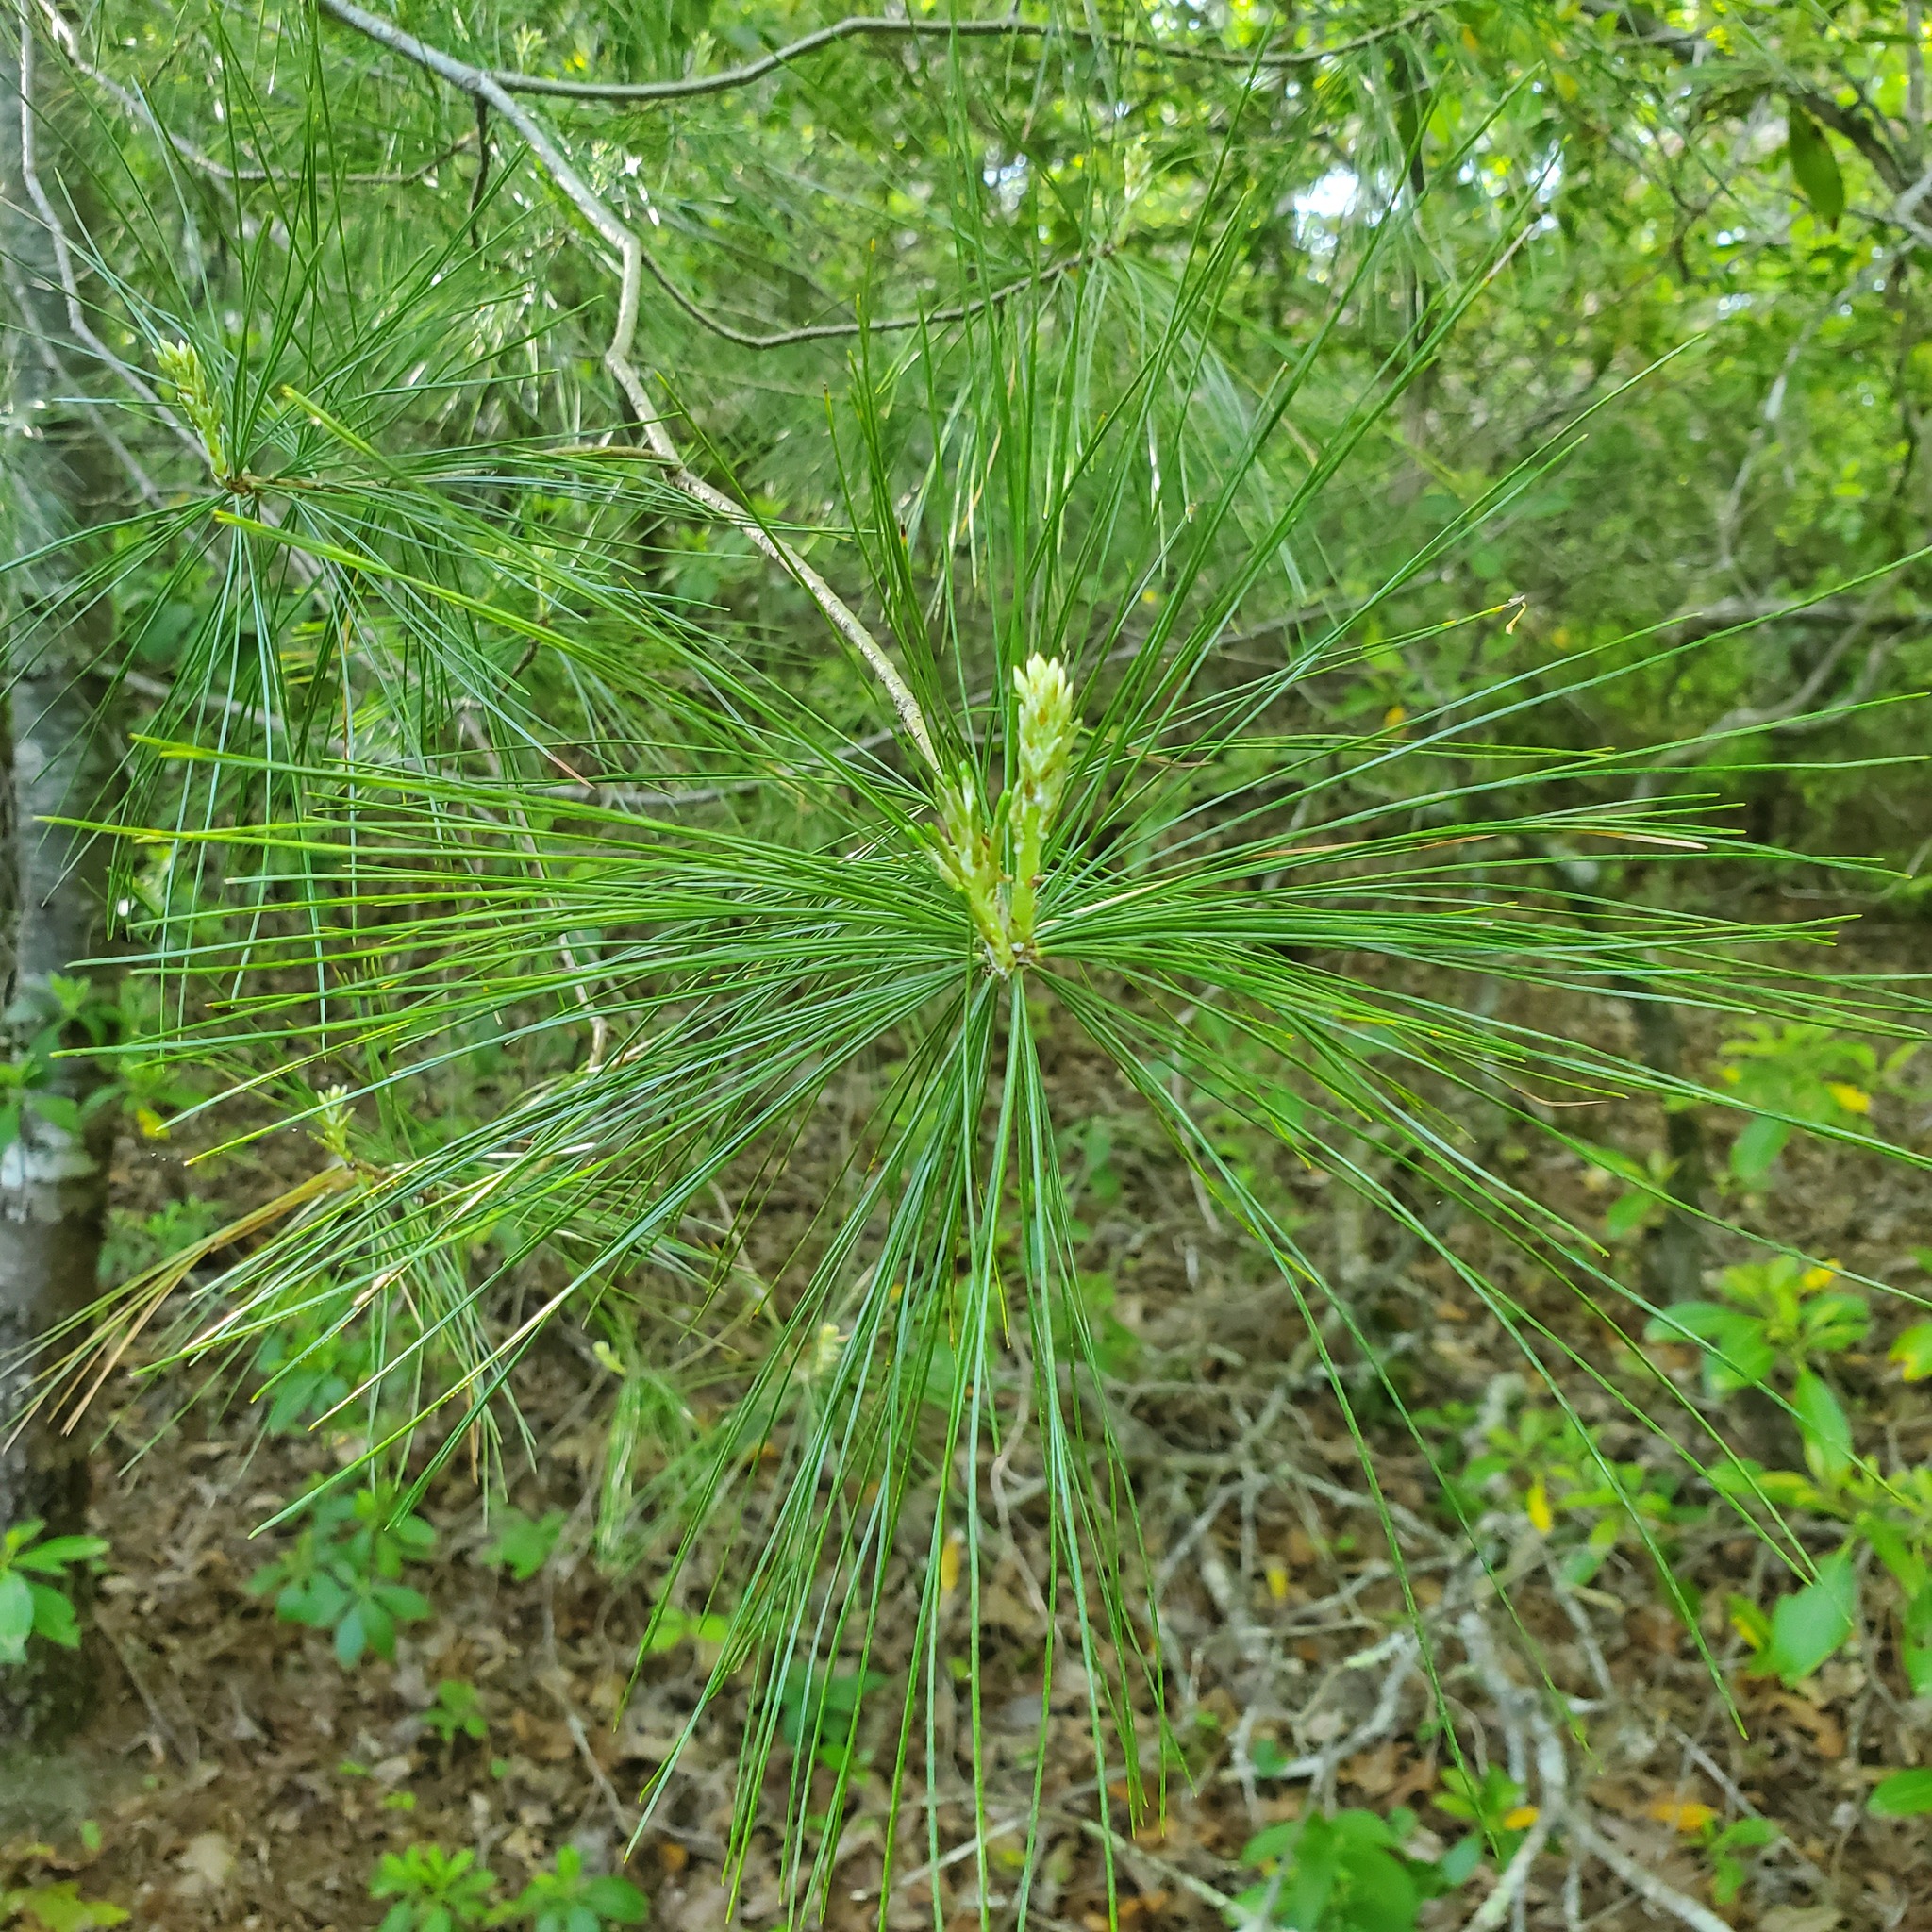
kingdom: Plantae
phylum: Tracheophyta
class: Pinopsida
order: Pinales
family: Pinaceae
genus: Pinus
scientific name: Pinus strobus
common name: Weymouth pine
